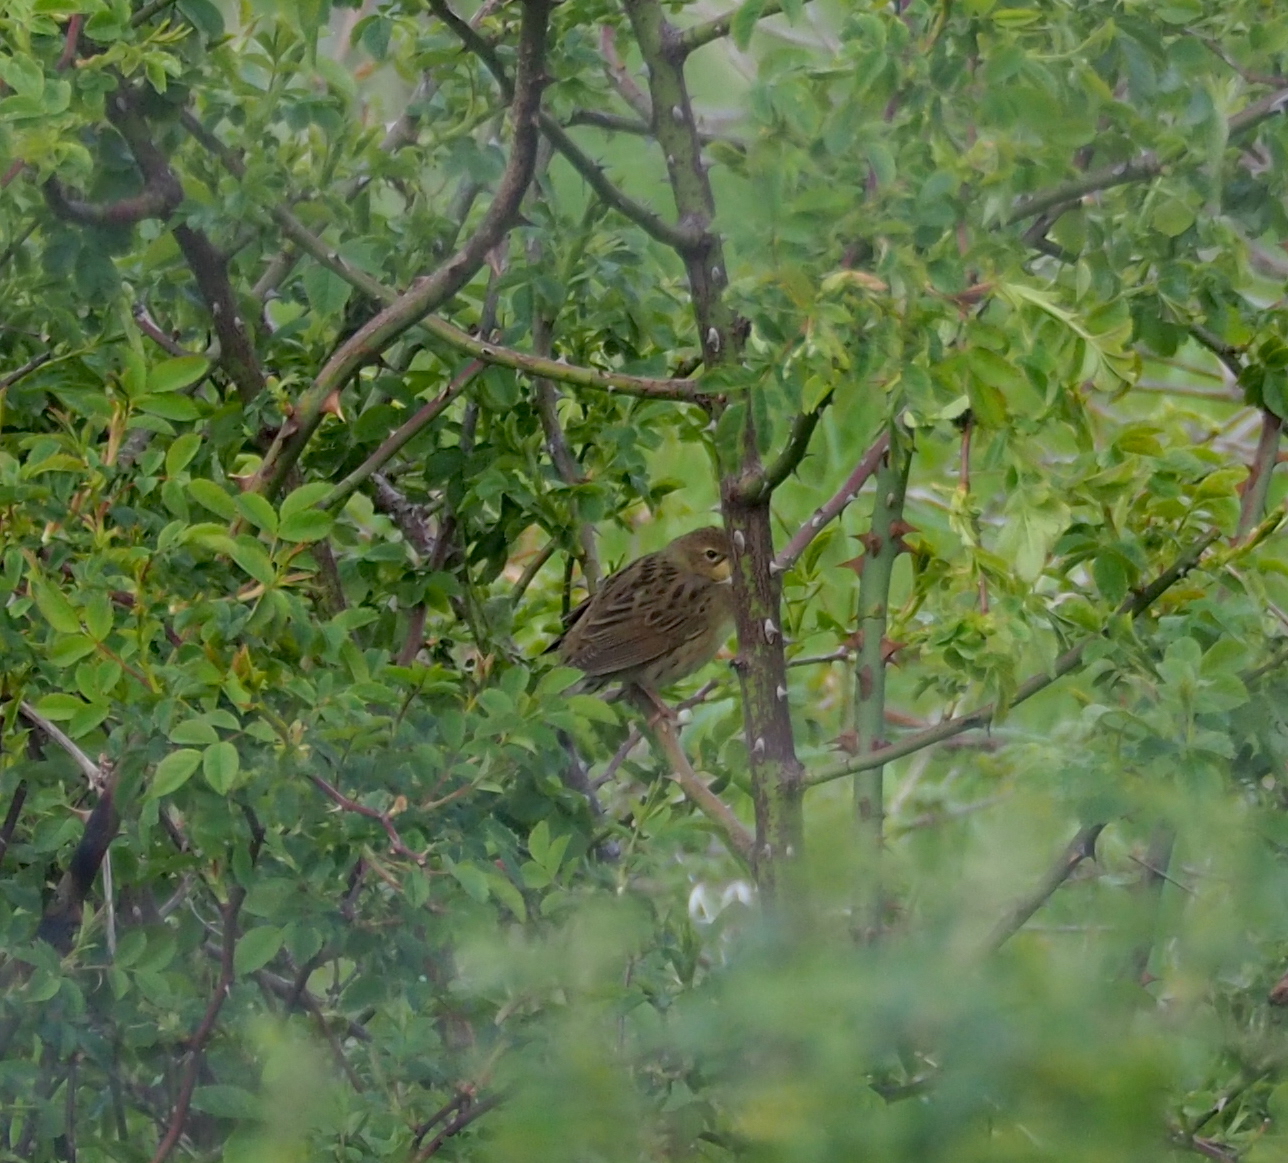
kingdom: Animalia
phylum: Chordata
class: Aves
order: Passeriformes
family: Locustellidae
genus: Locustella
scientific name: Locustella naevia
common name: Common grasshopper warbler
